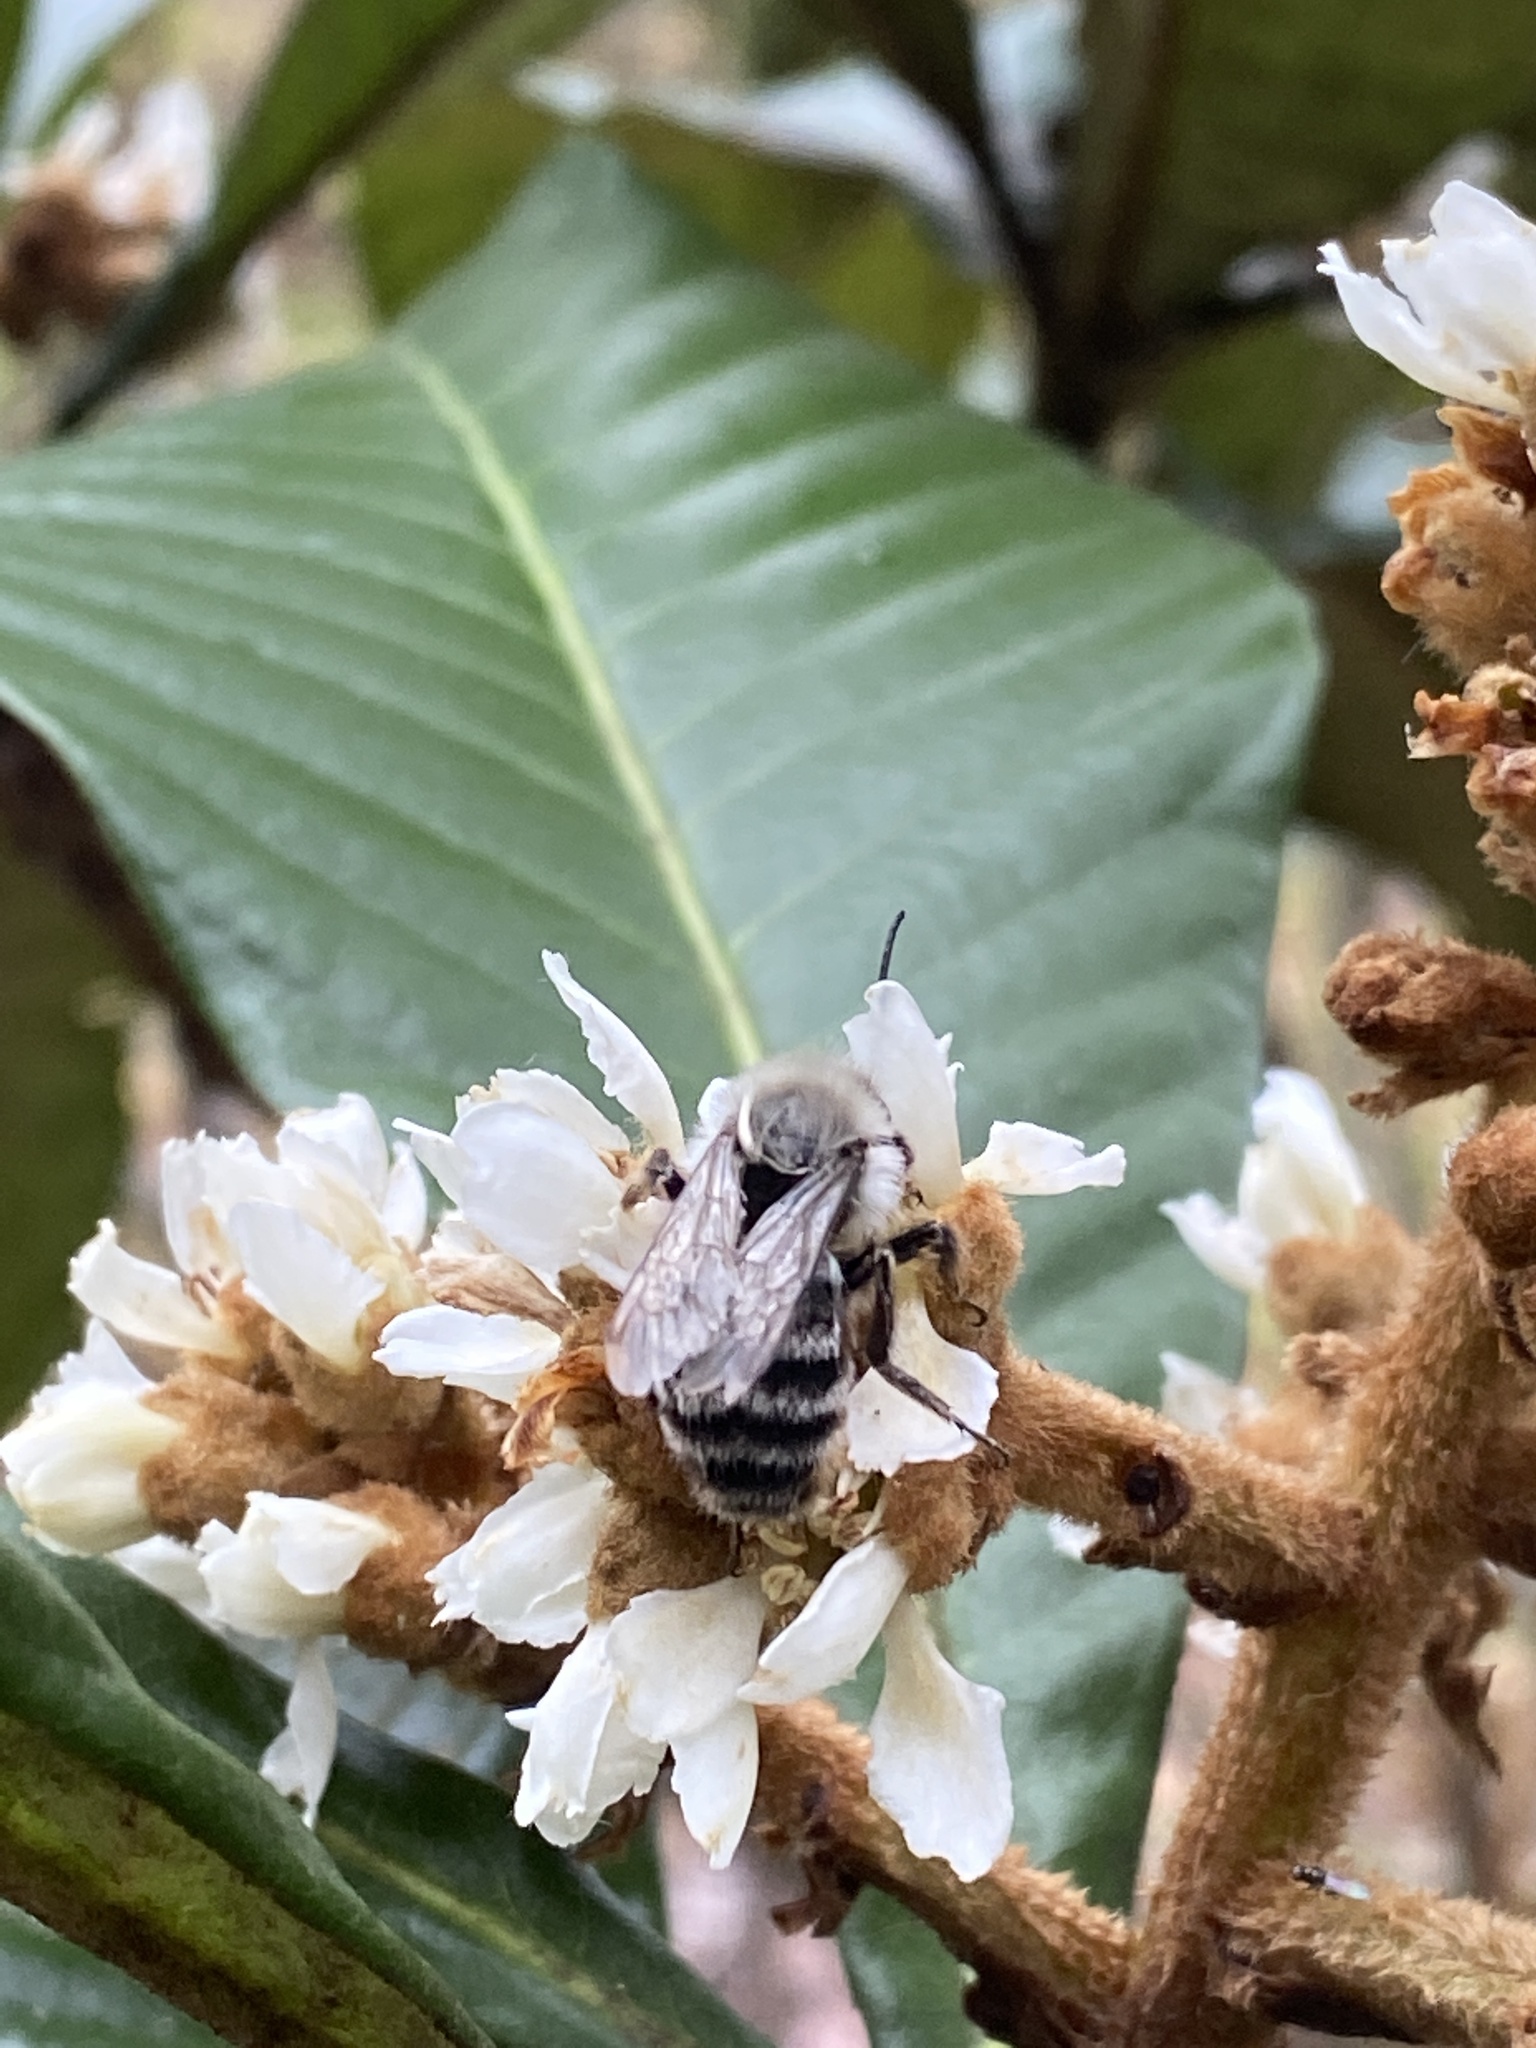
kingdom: Animalia
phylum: Arthropoda
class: Insecta
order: Hymenoptera
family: Apidae
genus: Bombus
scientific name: Bombus impatiens
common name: Common eastern bumble bee
